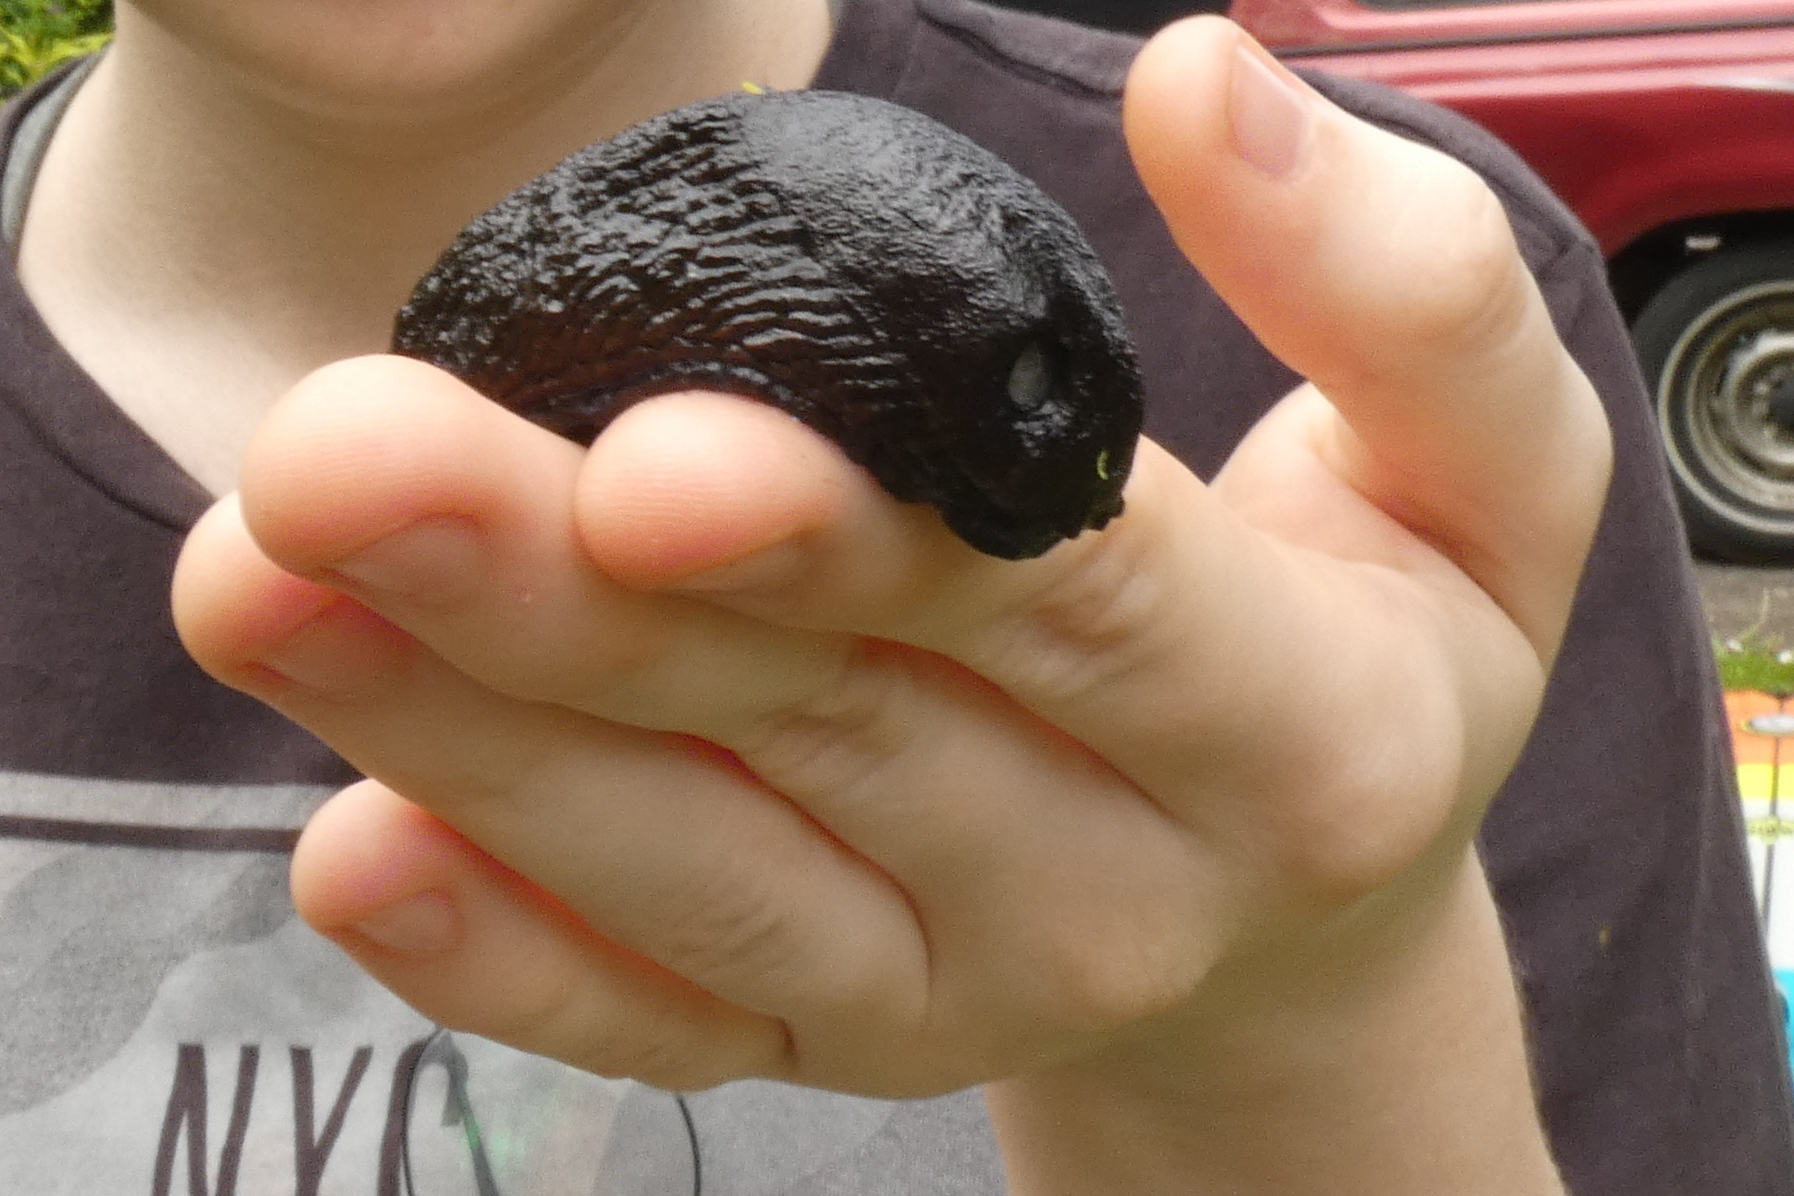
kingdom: Animalia
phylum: Mollusca
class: Gastropoda
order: Stylommatophora
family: Arionidae
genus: Arion
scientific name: Arion
